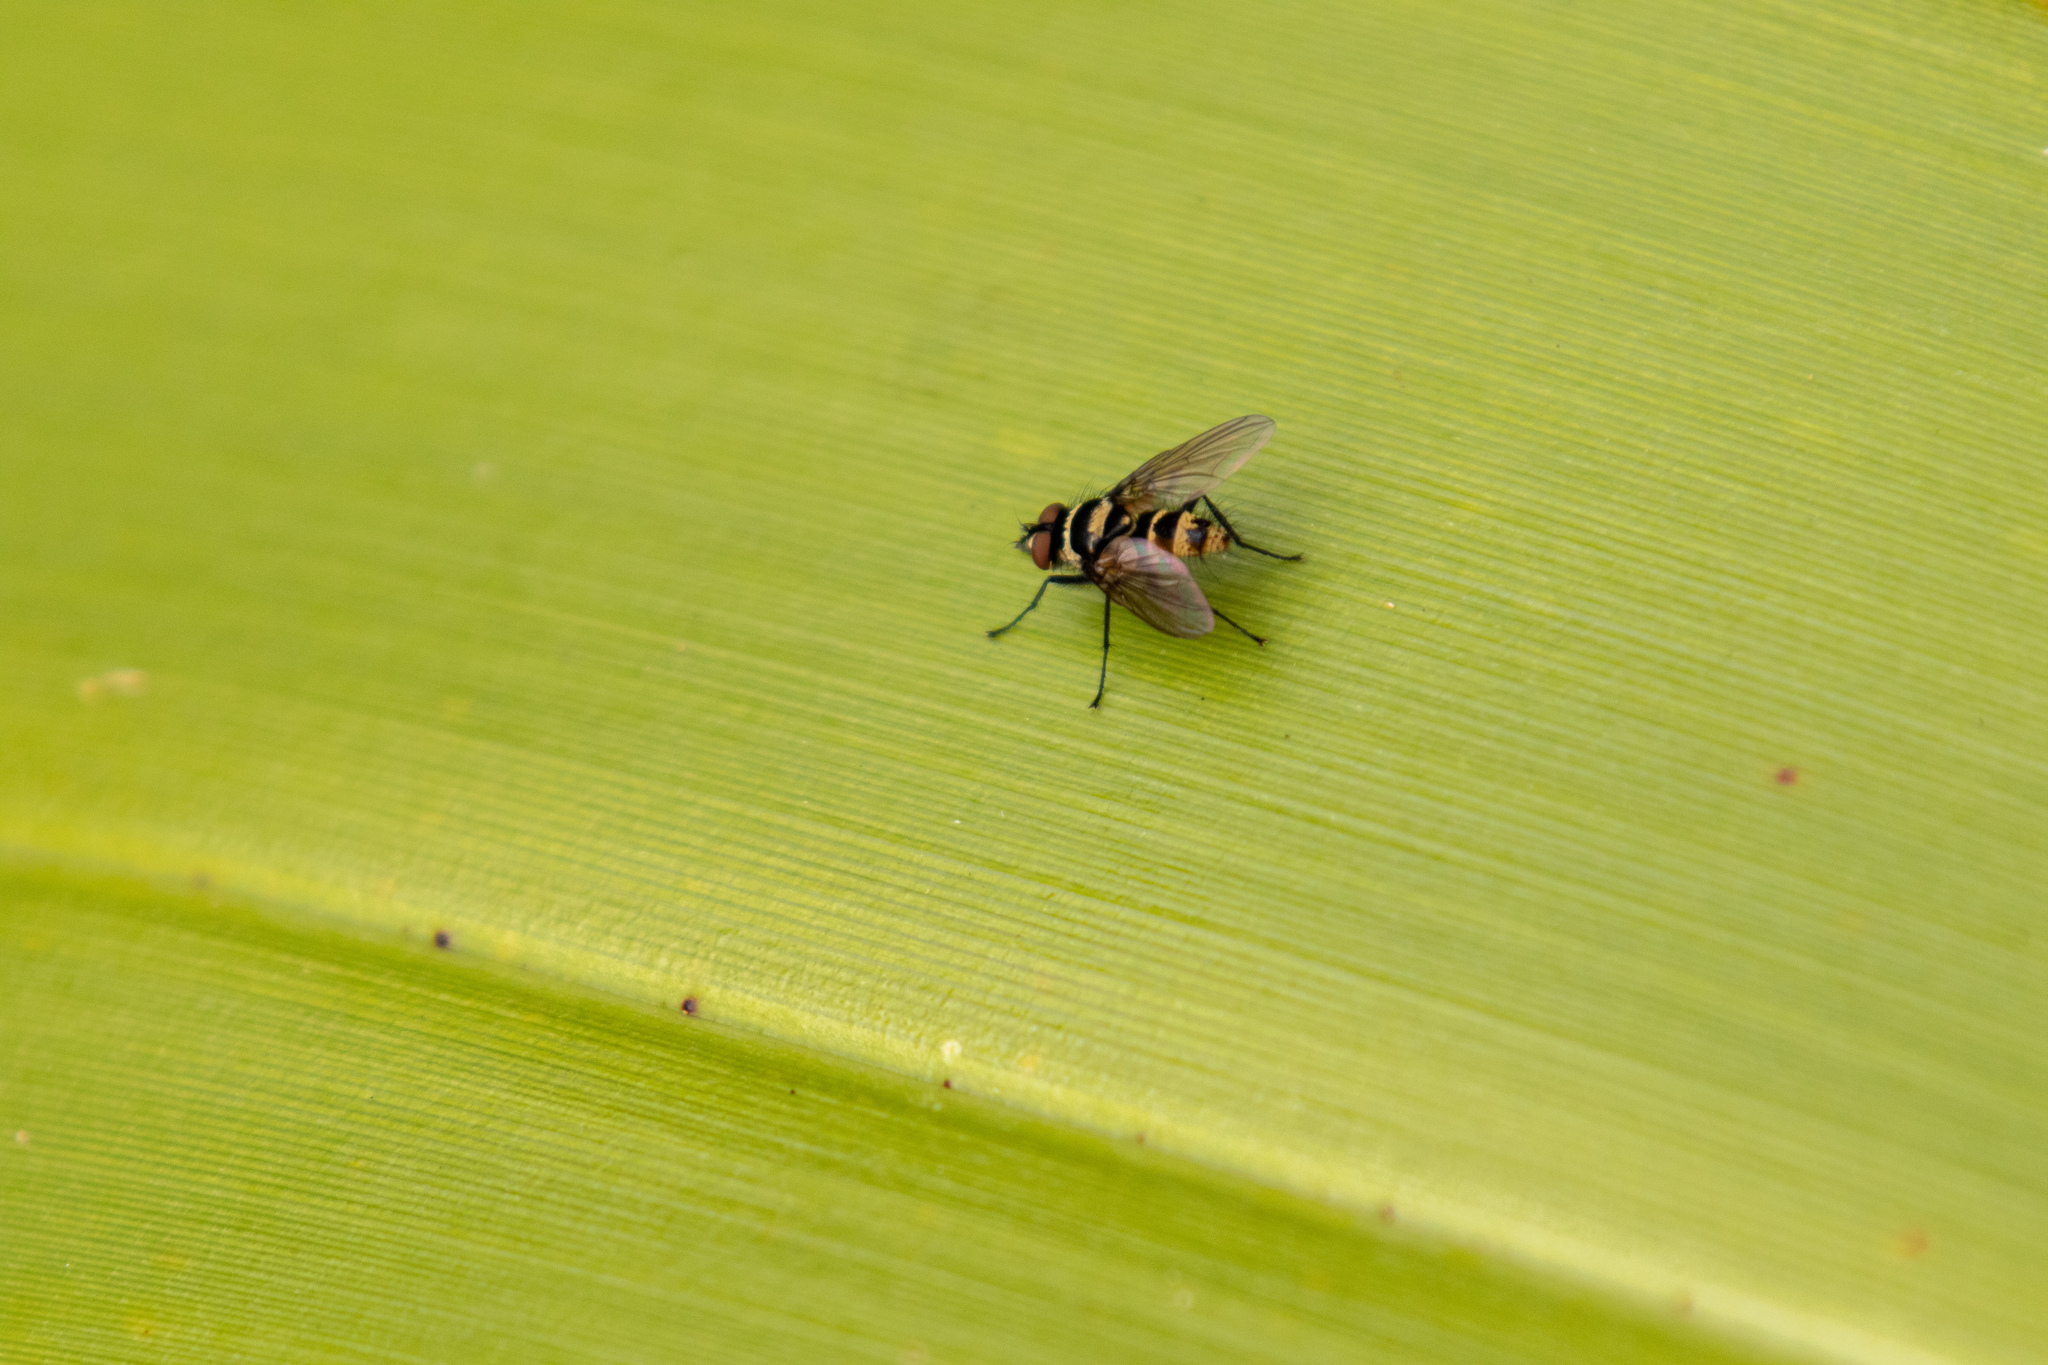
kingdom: Animalia
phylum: Arthropoda
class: Insecta
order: Diptera
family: Tachinidae
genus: Trigonospila
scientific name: Trigonospila brevifacies
